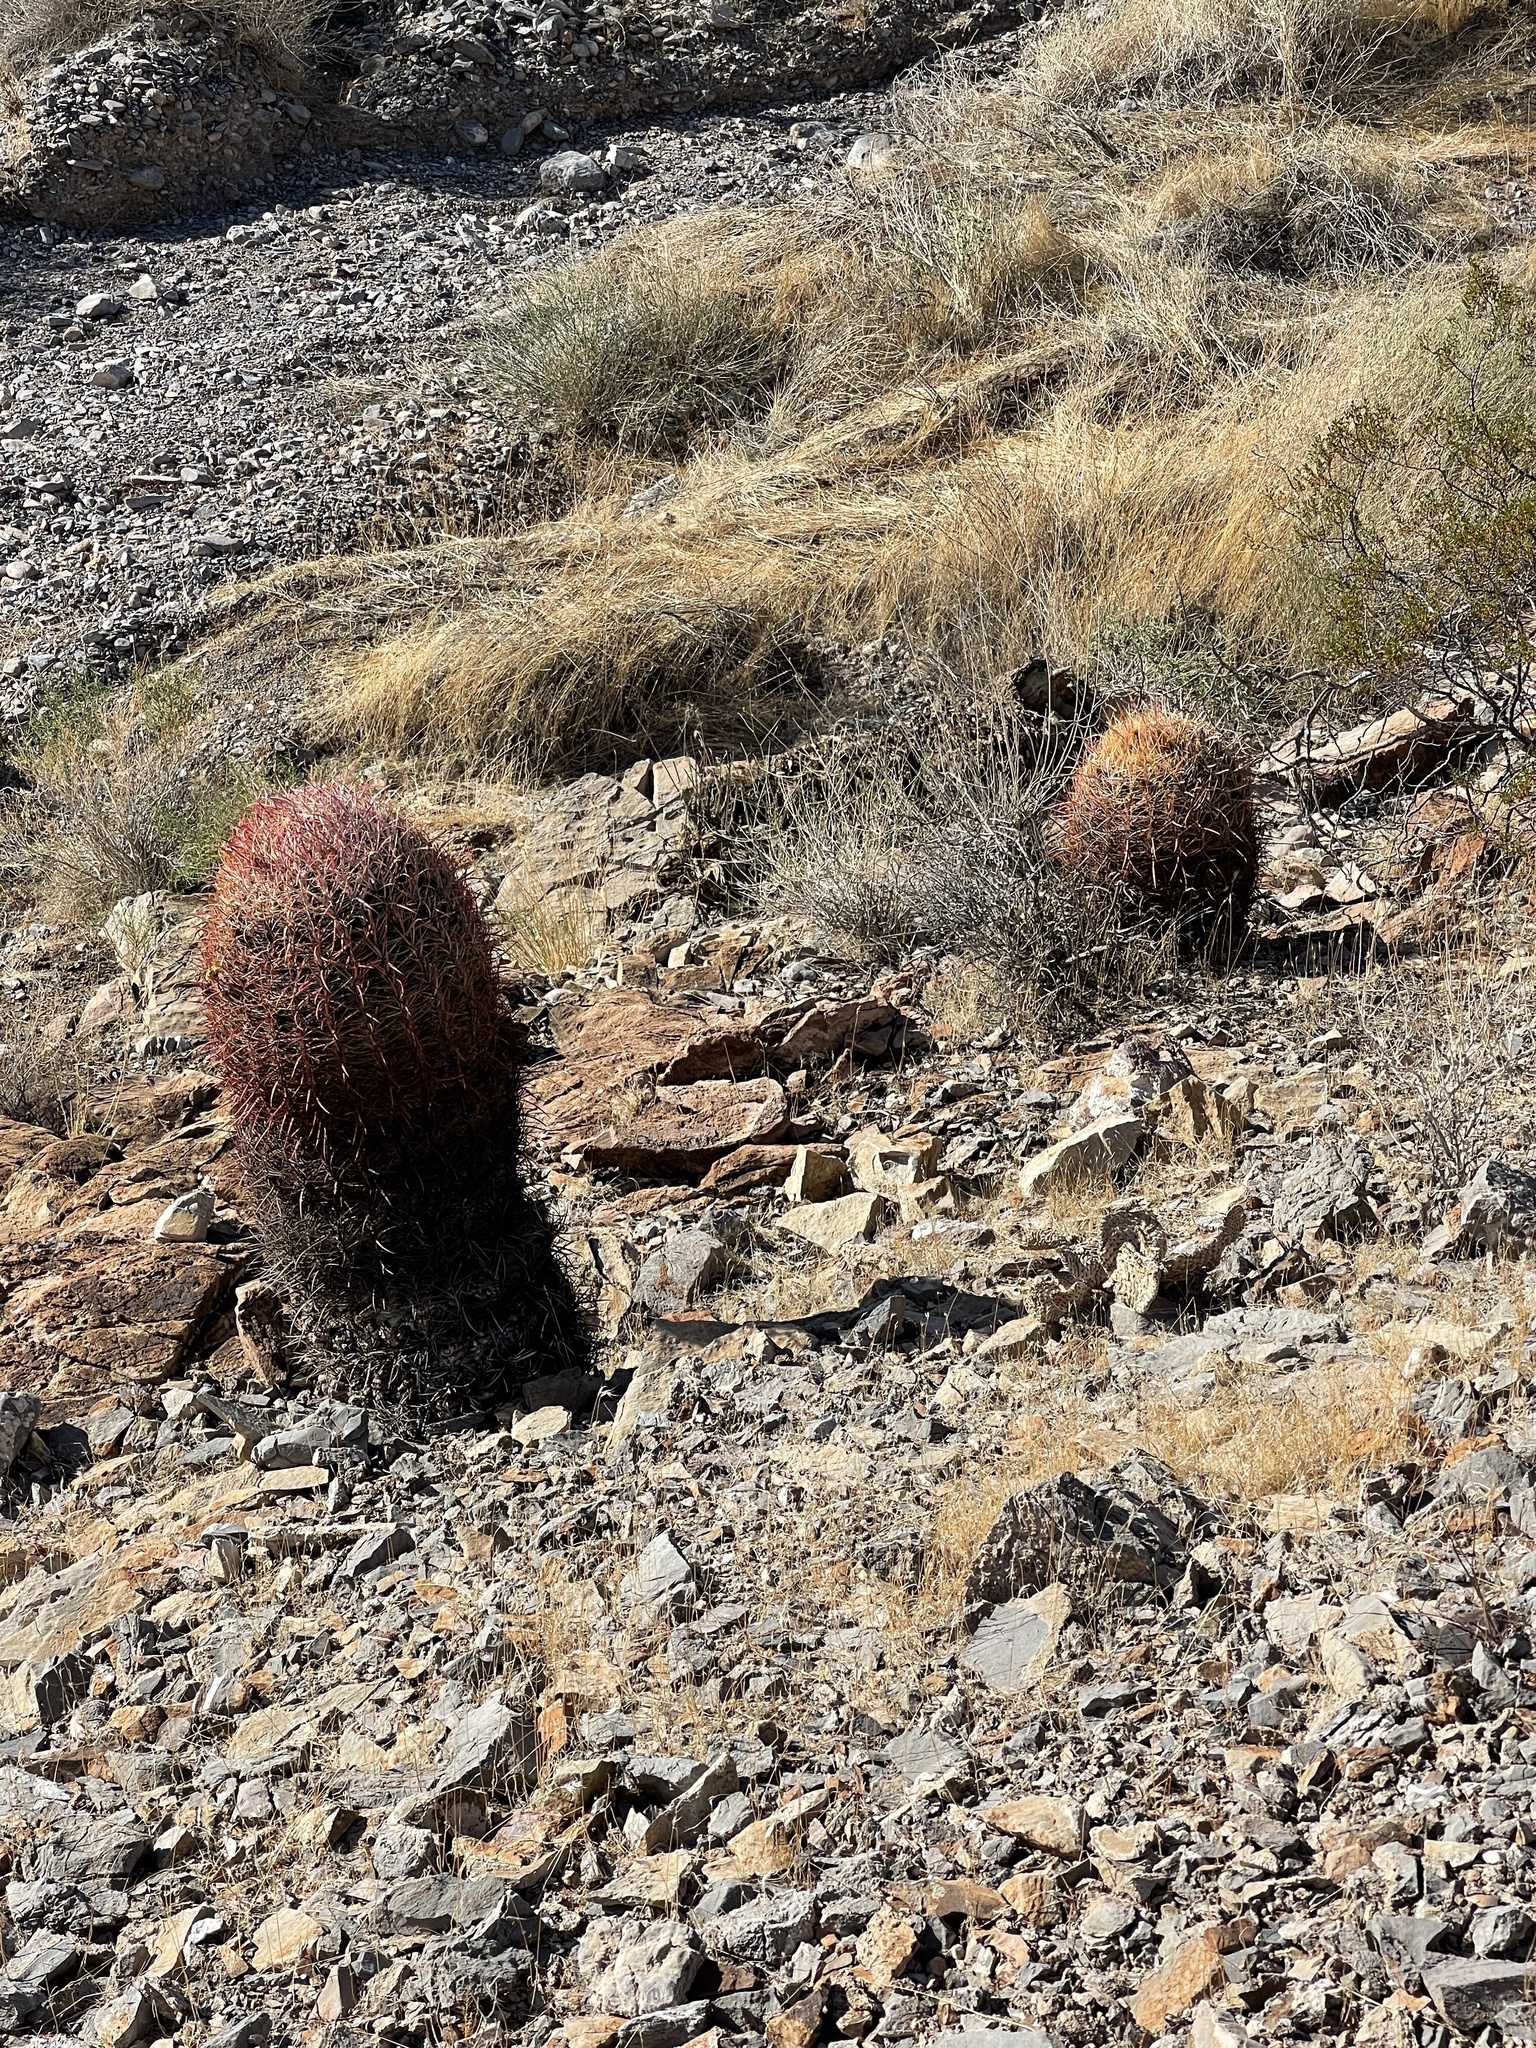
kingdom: Plantae
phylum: Tracheophyta
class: Magnoliopsida
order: Caryophyllales
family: Cactaceae
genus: Ferocactus
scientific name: Ferocactus cylindraceus
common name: California barrel cactus
